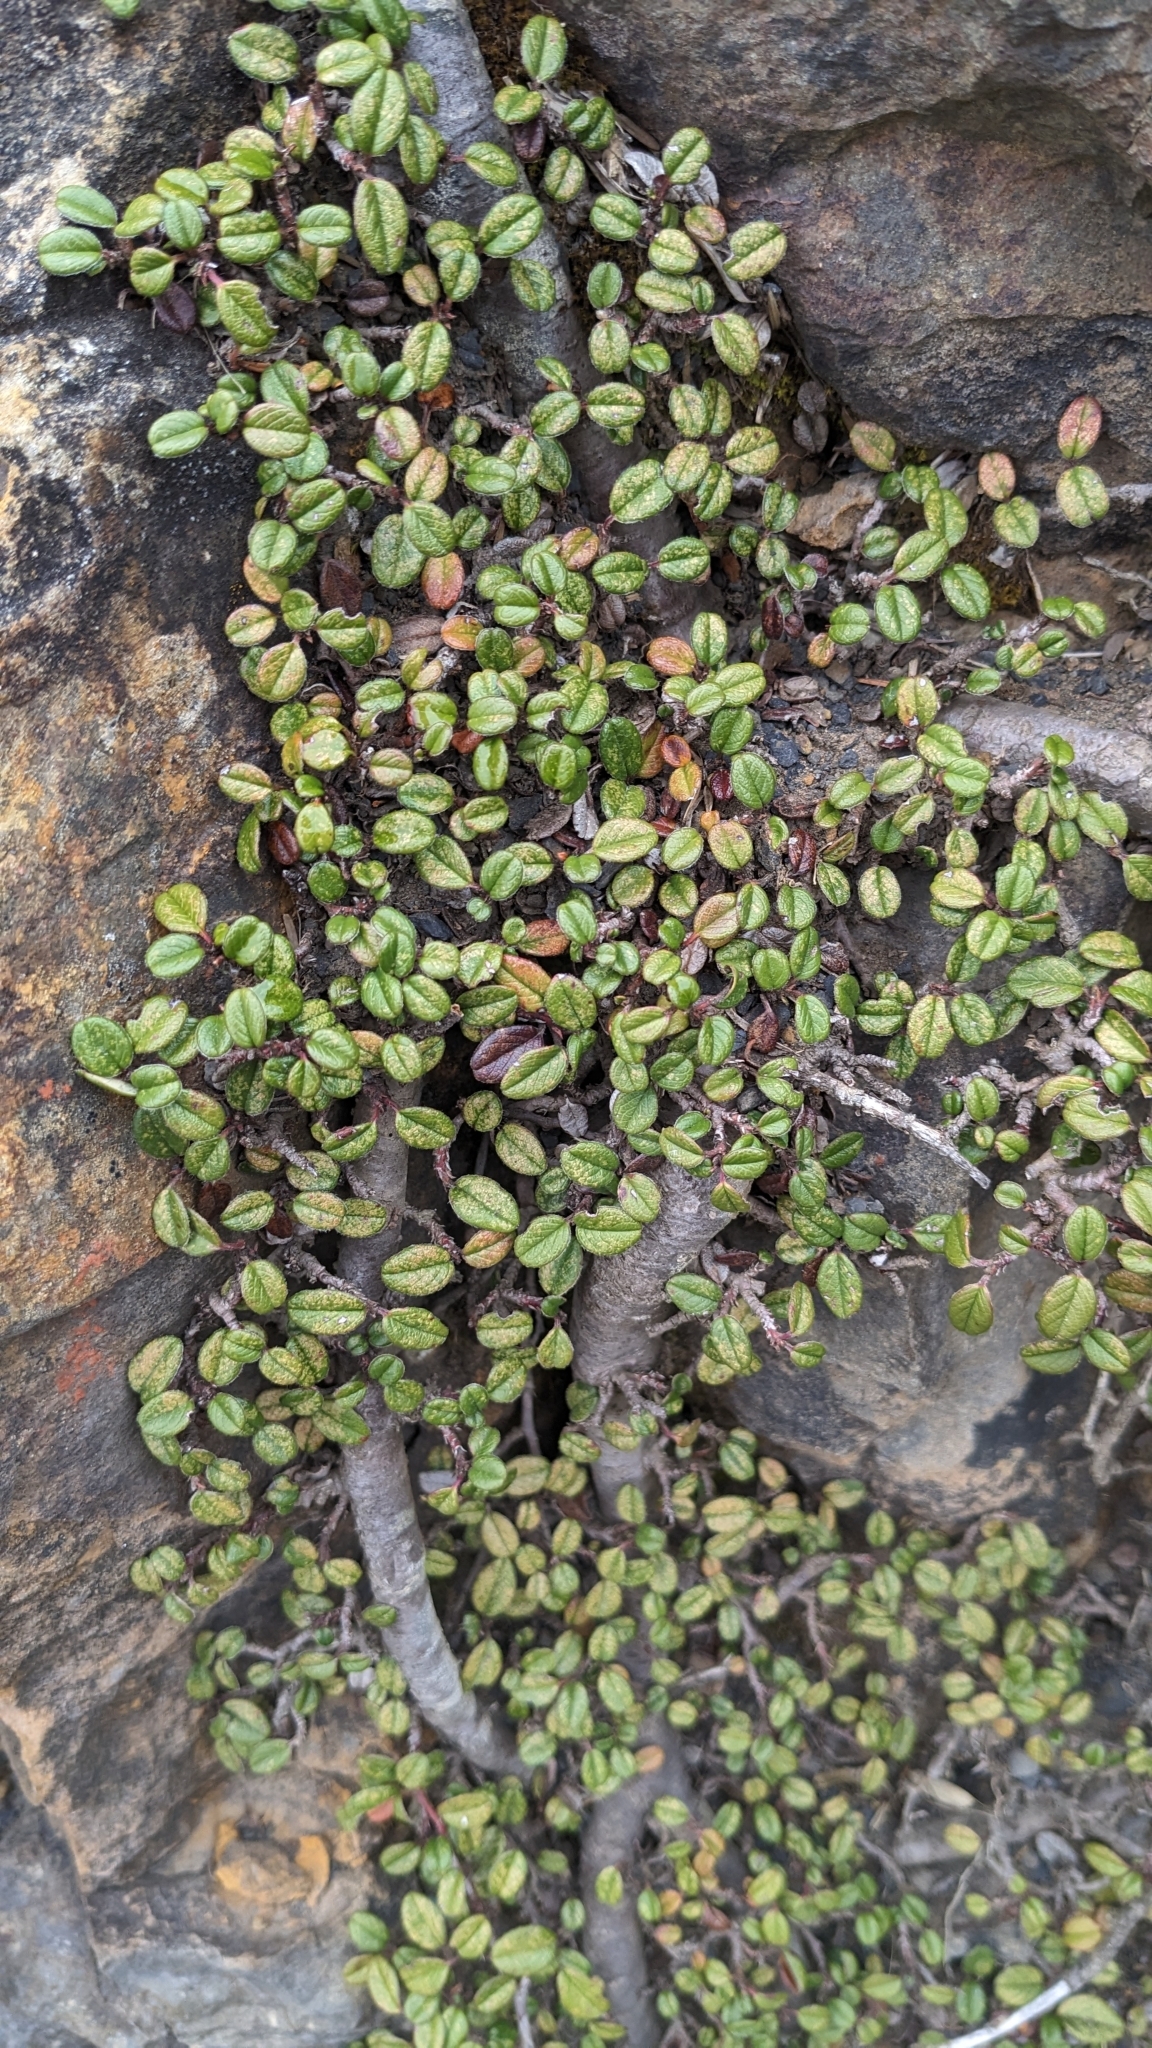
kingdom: Plantae
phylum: Tracheophyta
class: Magnoliopsida
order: Rosales
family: Rosaceae
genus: Cotoneaster
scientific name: Cotoneaster morrisonensis
